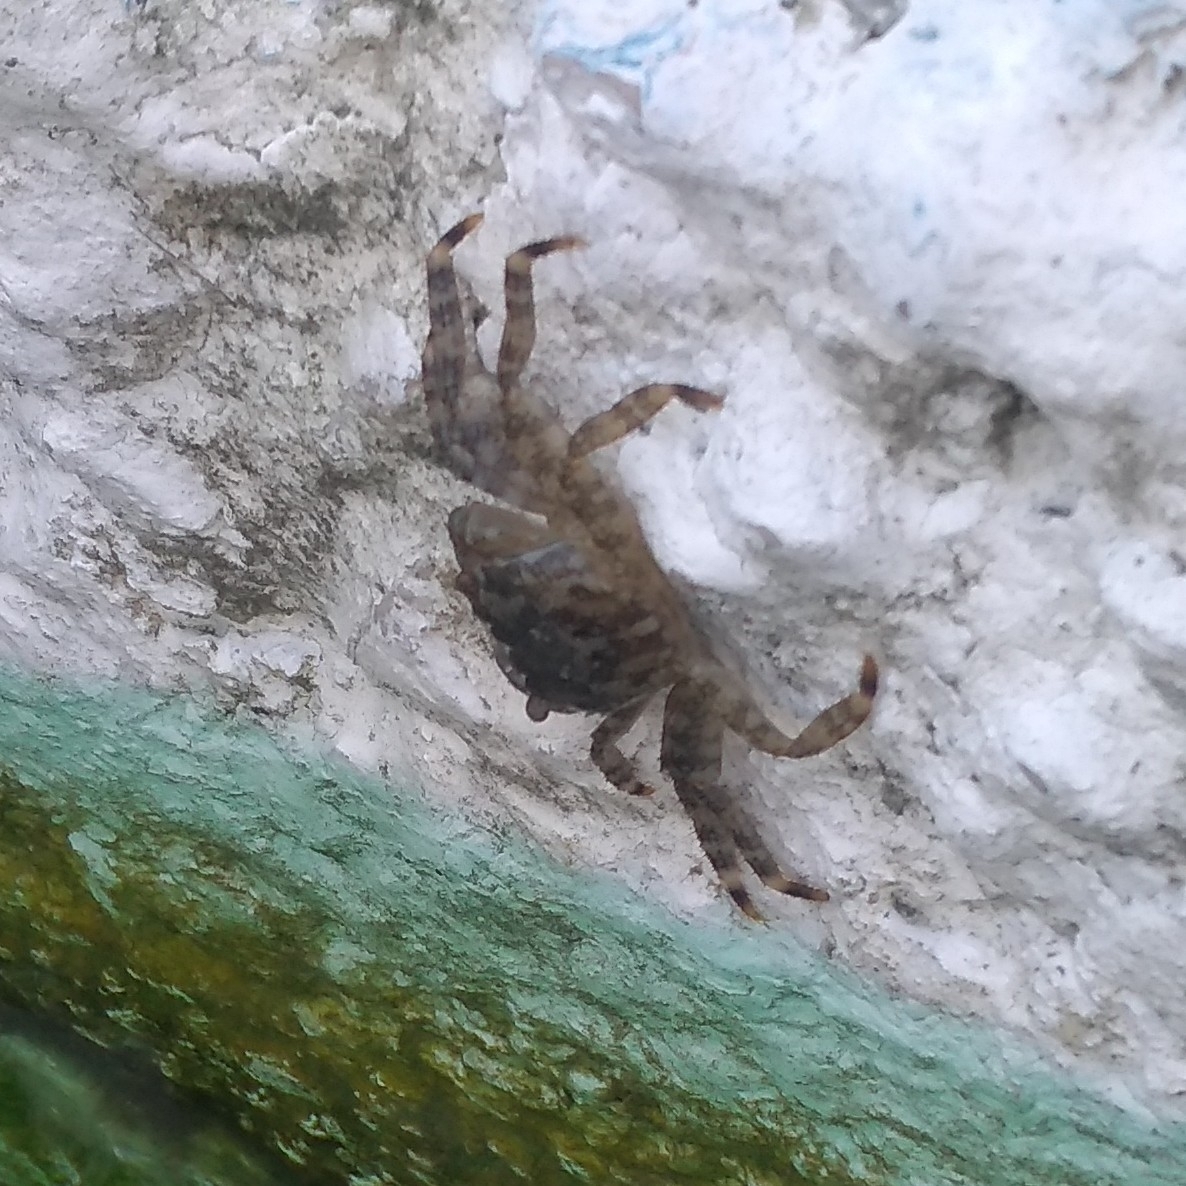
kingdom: Animalia
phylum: Arthropoda
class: Malacostraca
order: Decapoda
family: Grapsidae
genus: Pachygrapsus
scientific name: Pachygrapsus marmoratus
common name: Marbled rock crab
